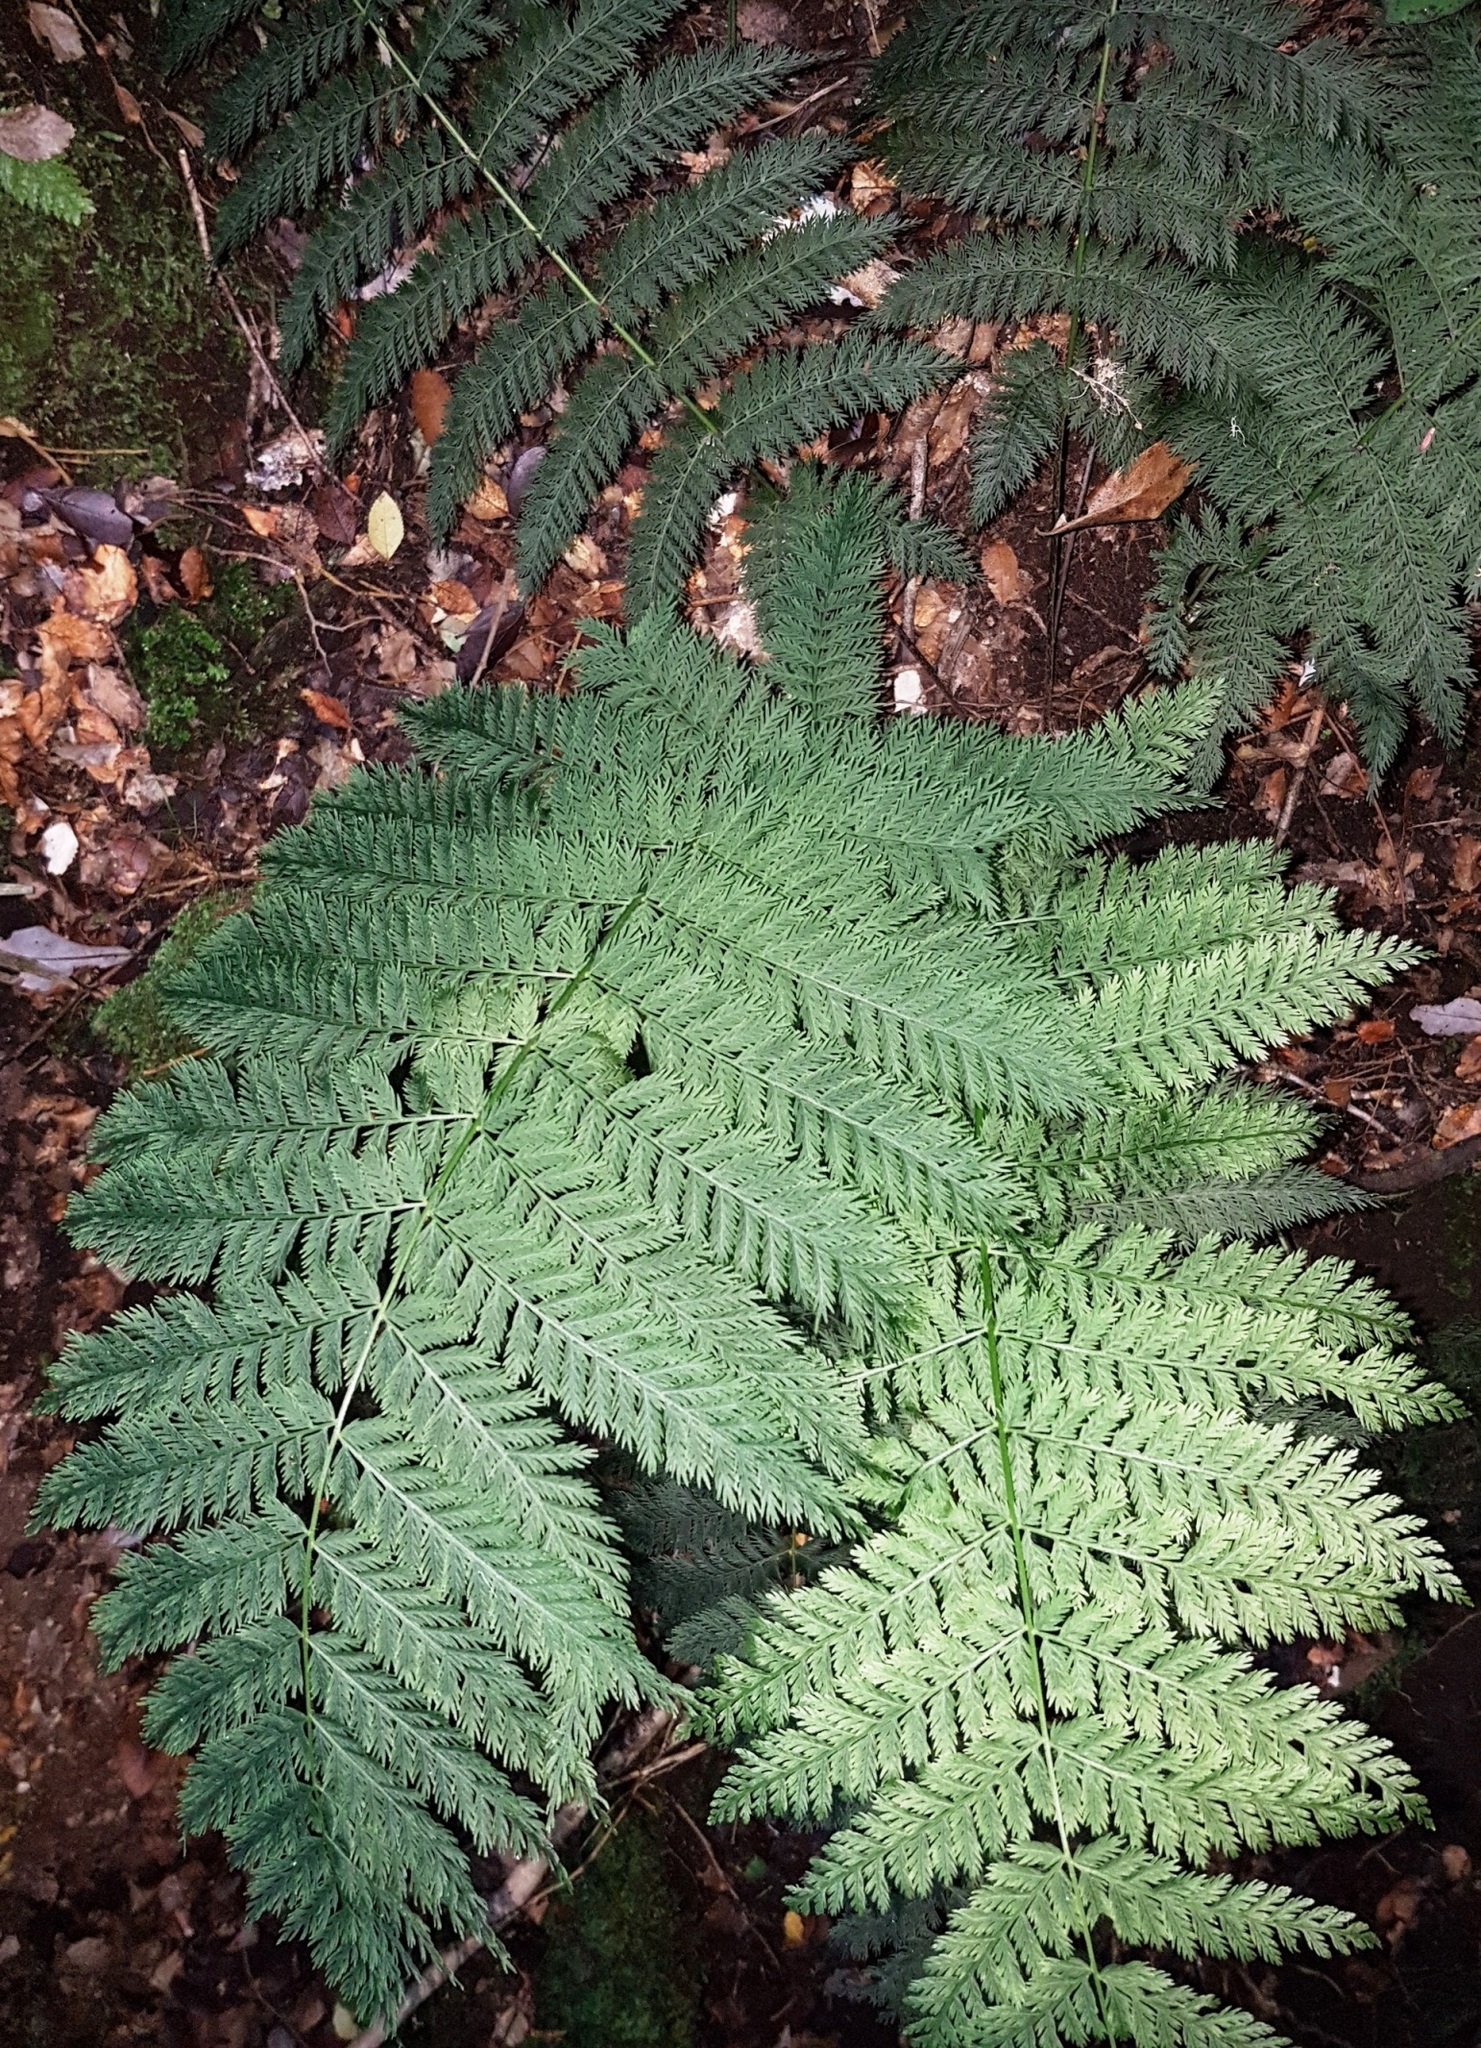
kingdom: Plantae
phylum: Tracheophyta
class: Polypodiopsida
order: Osmundales
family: Osmundaceae
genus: Leptopteris
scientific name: Leptopteris hymenophylloides
